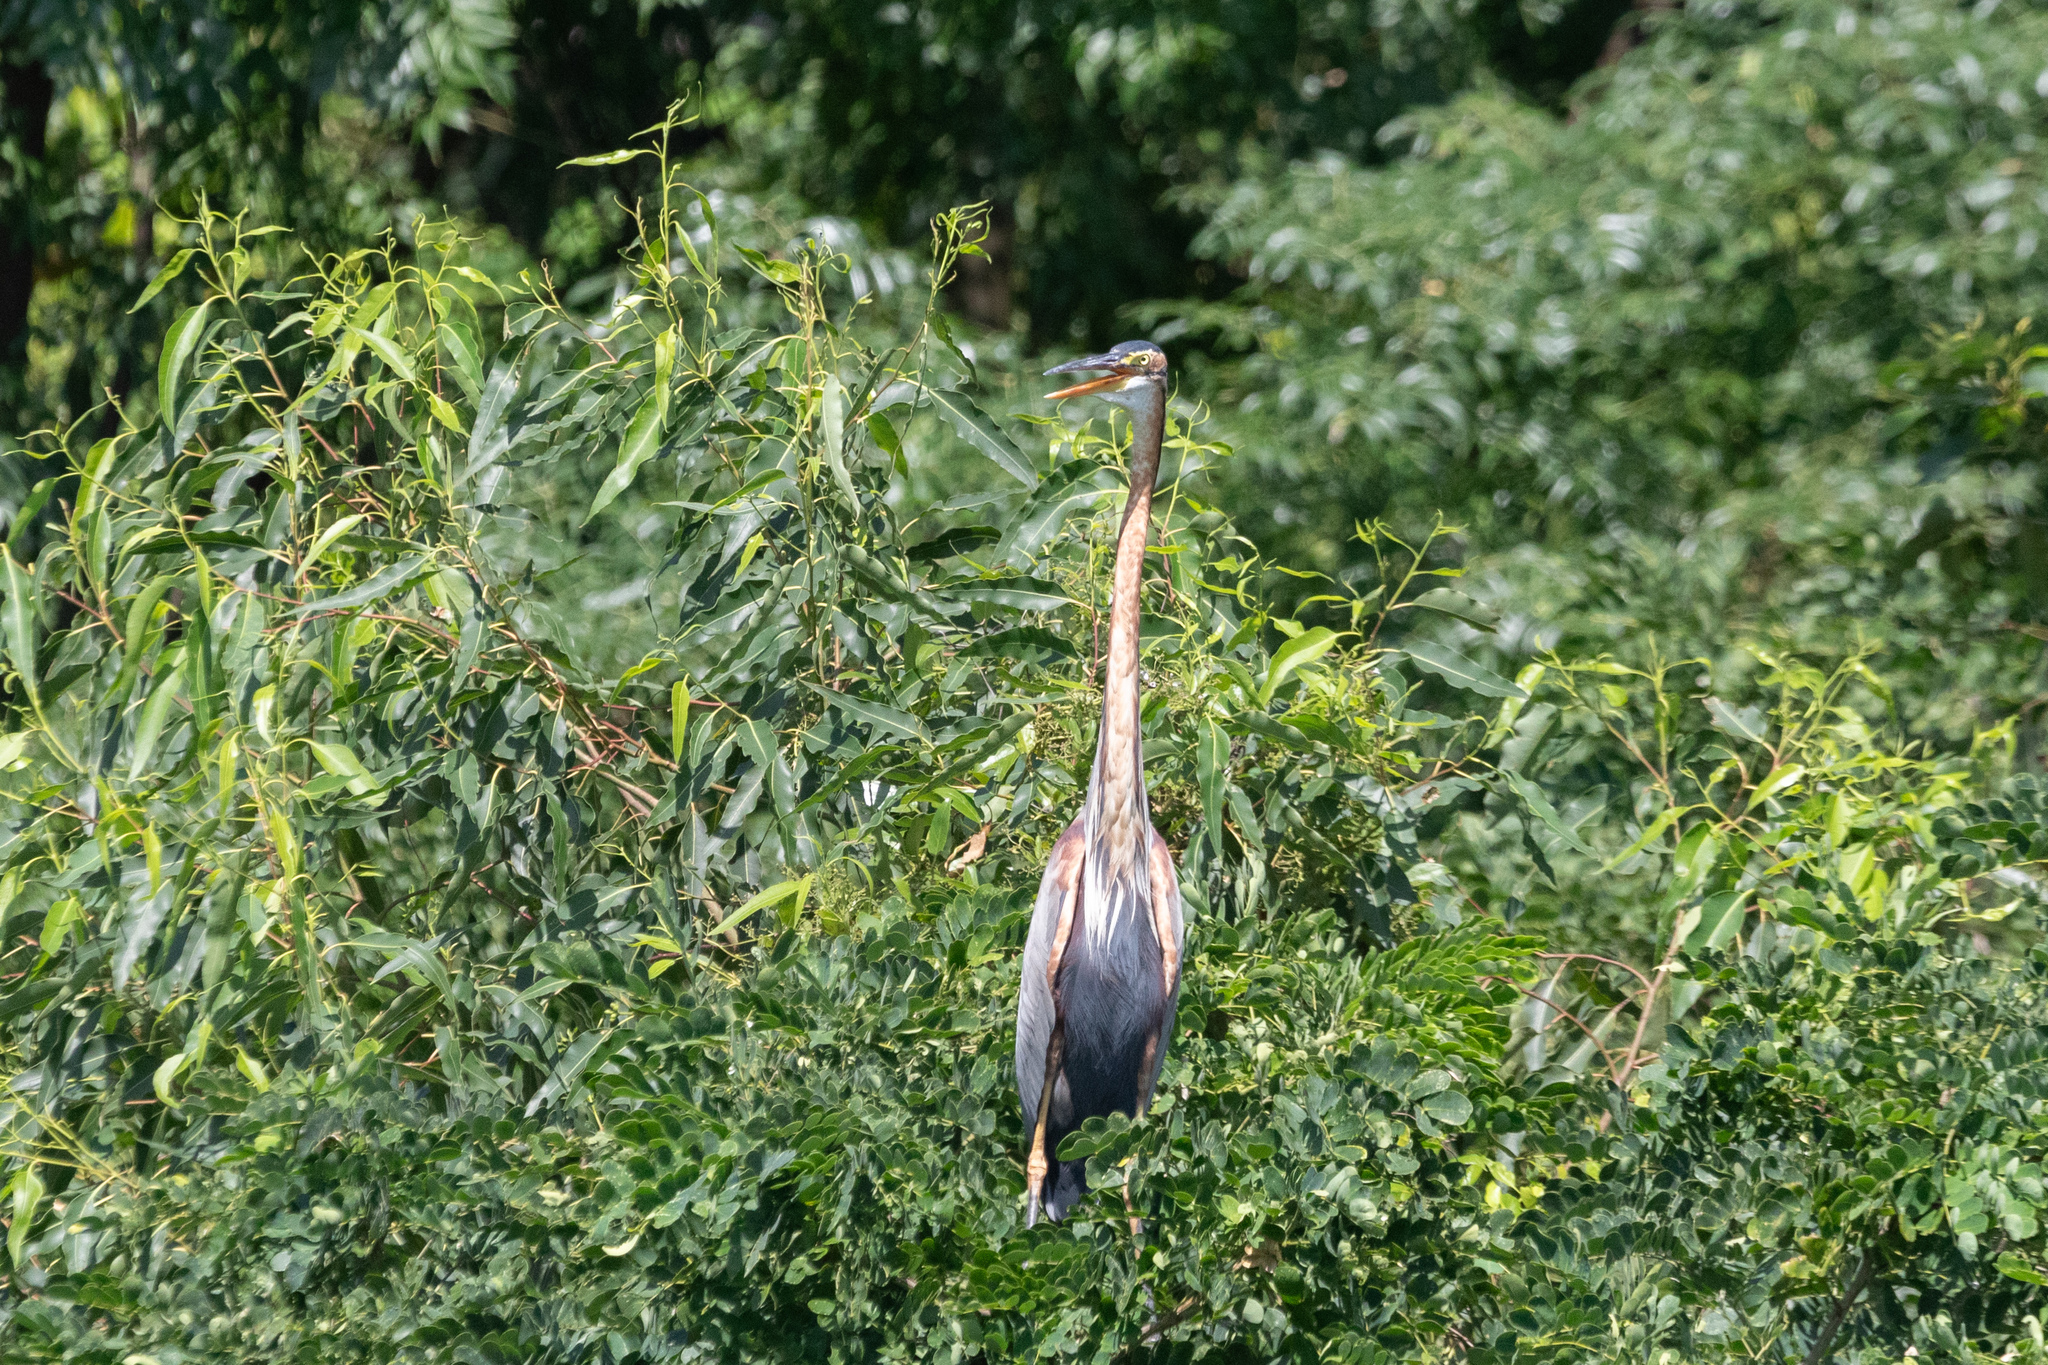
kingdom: Animalia
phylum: Chordata
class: Aves
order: Pelecaniformes
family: Ardeidae
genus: Ardea
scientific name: Ardea purpurea
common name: Purple heron
